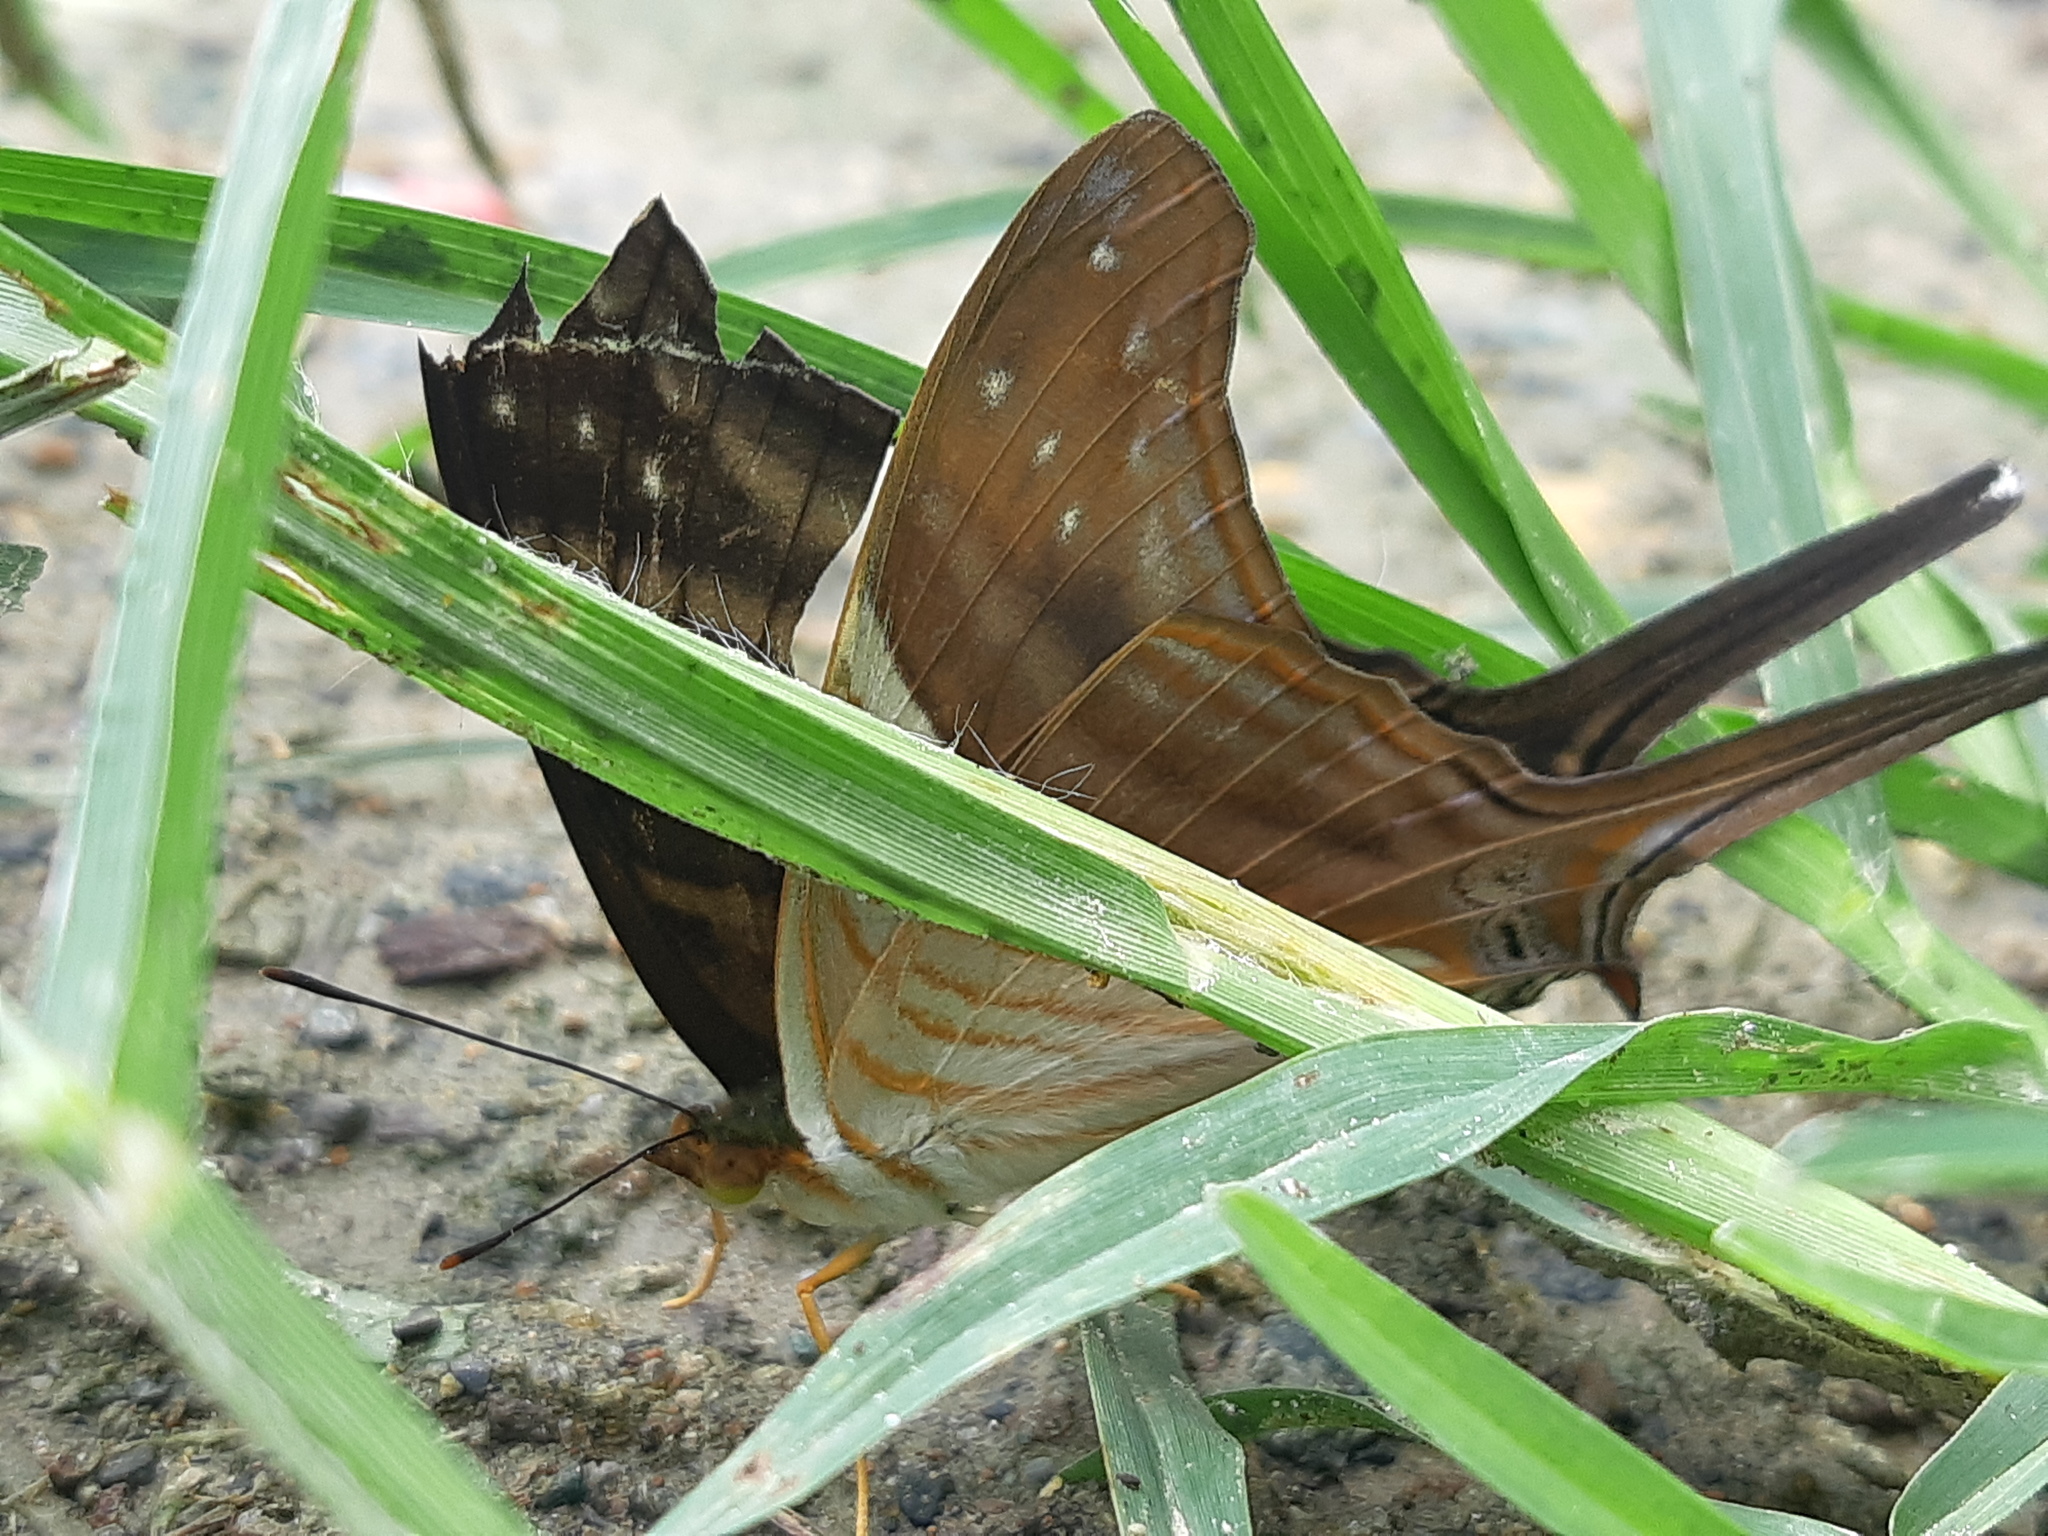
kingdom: Animalia
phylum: Arthropoda
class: Insecta
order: Lepidoptera
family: Nymphalidae
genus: Marpesia
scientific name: Marpesia chiron
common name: Many-banded daggerwing
